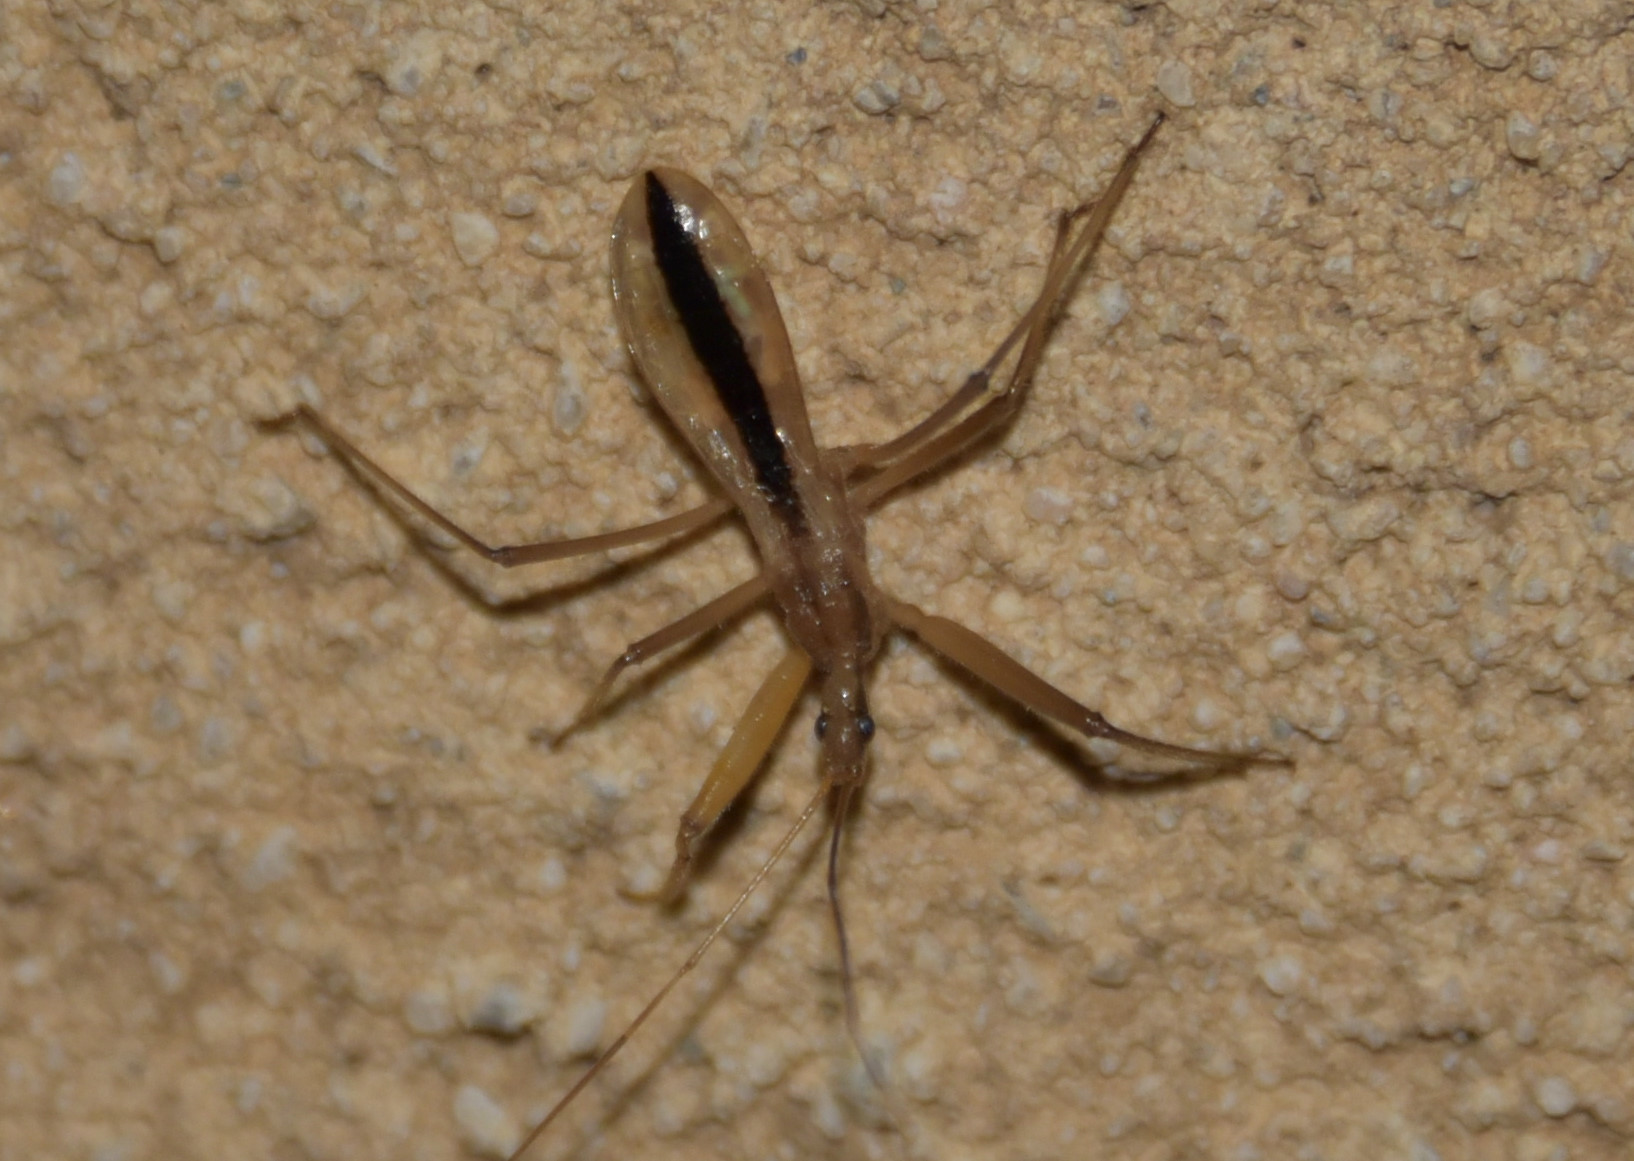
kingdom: Animalia
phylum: Arthropoda
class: Insecta
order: Hemiptera
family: Reduviidae
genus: Fitchia
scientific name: Fitchia aptera
